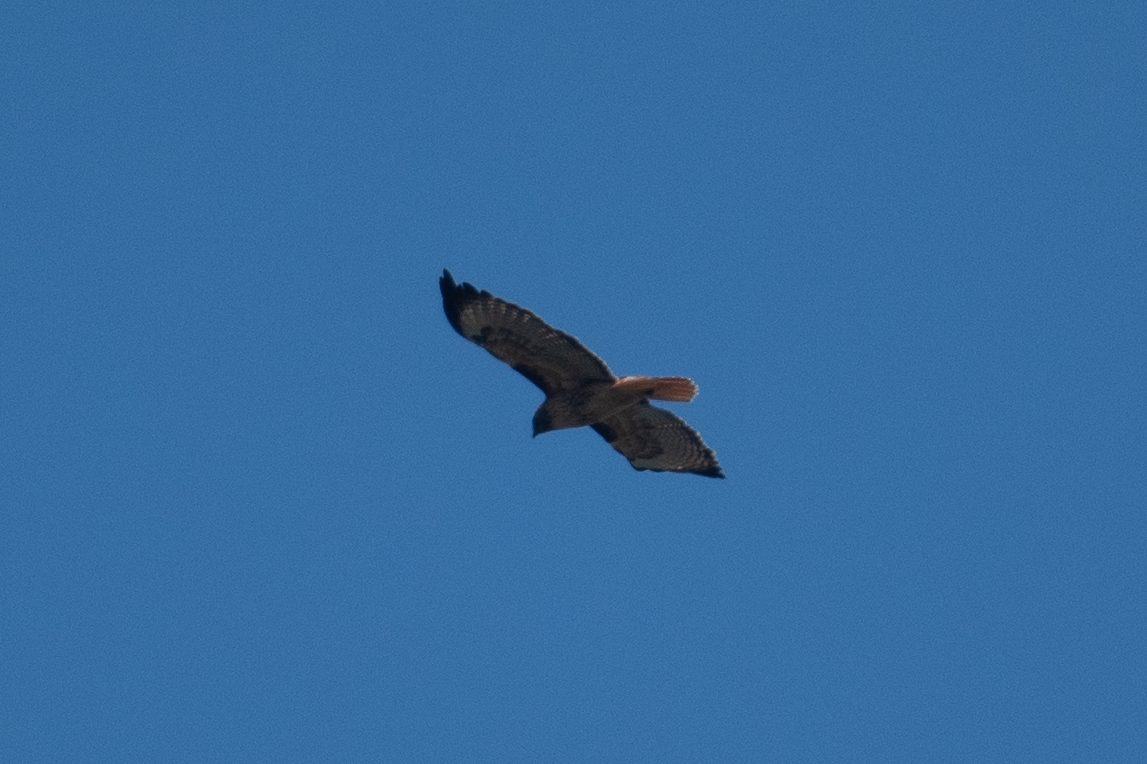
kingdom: Animalia
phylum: Chordata
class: Aves
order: Accipitriformes
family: Accipitridae
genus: Buteo
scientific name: Buteo jamaicensis
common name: Red-tailed hawk
